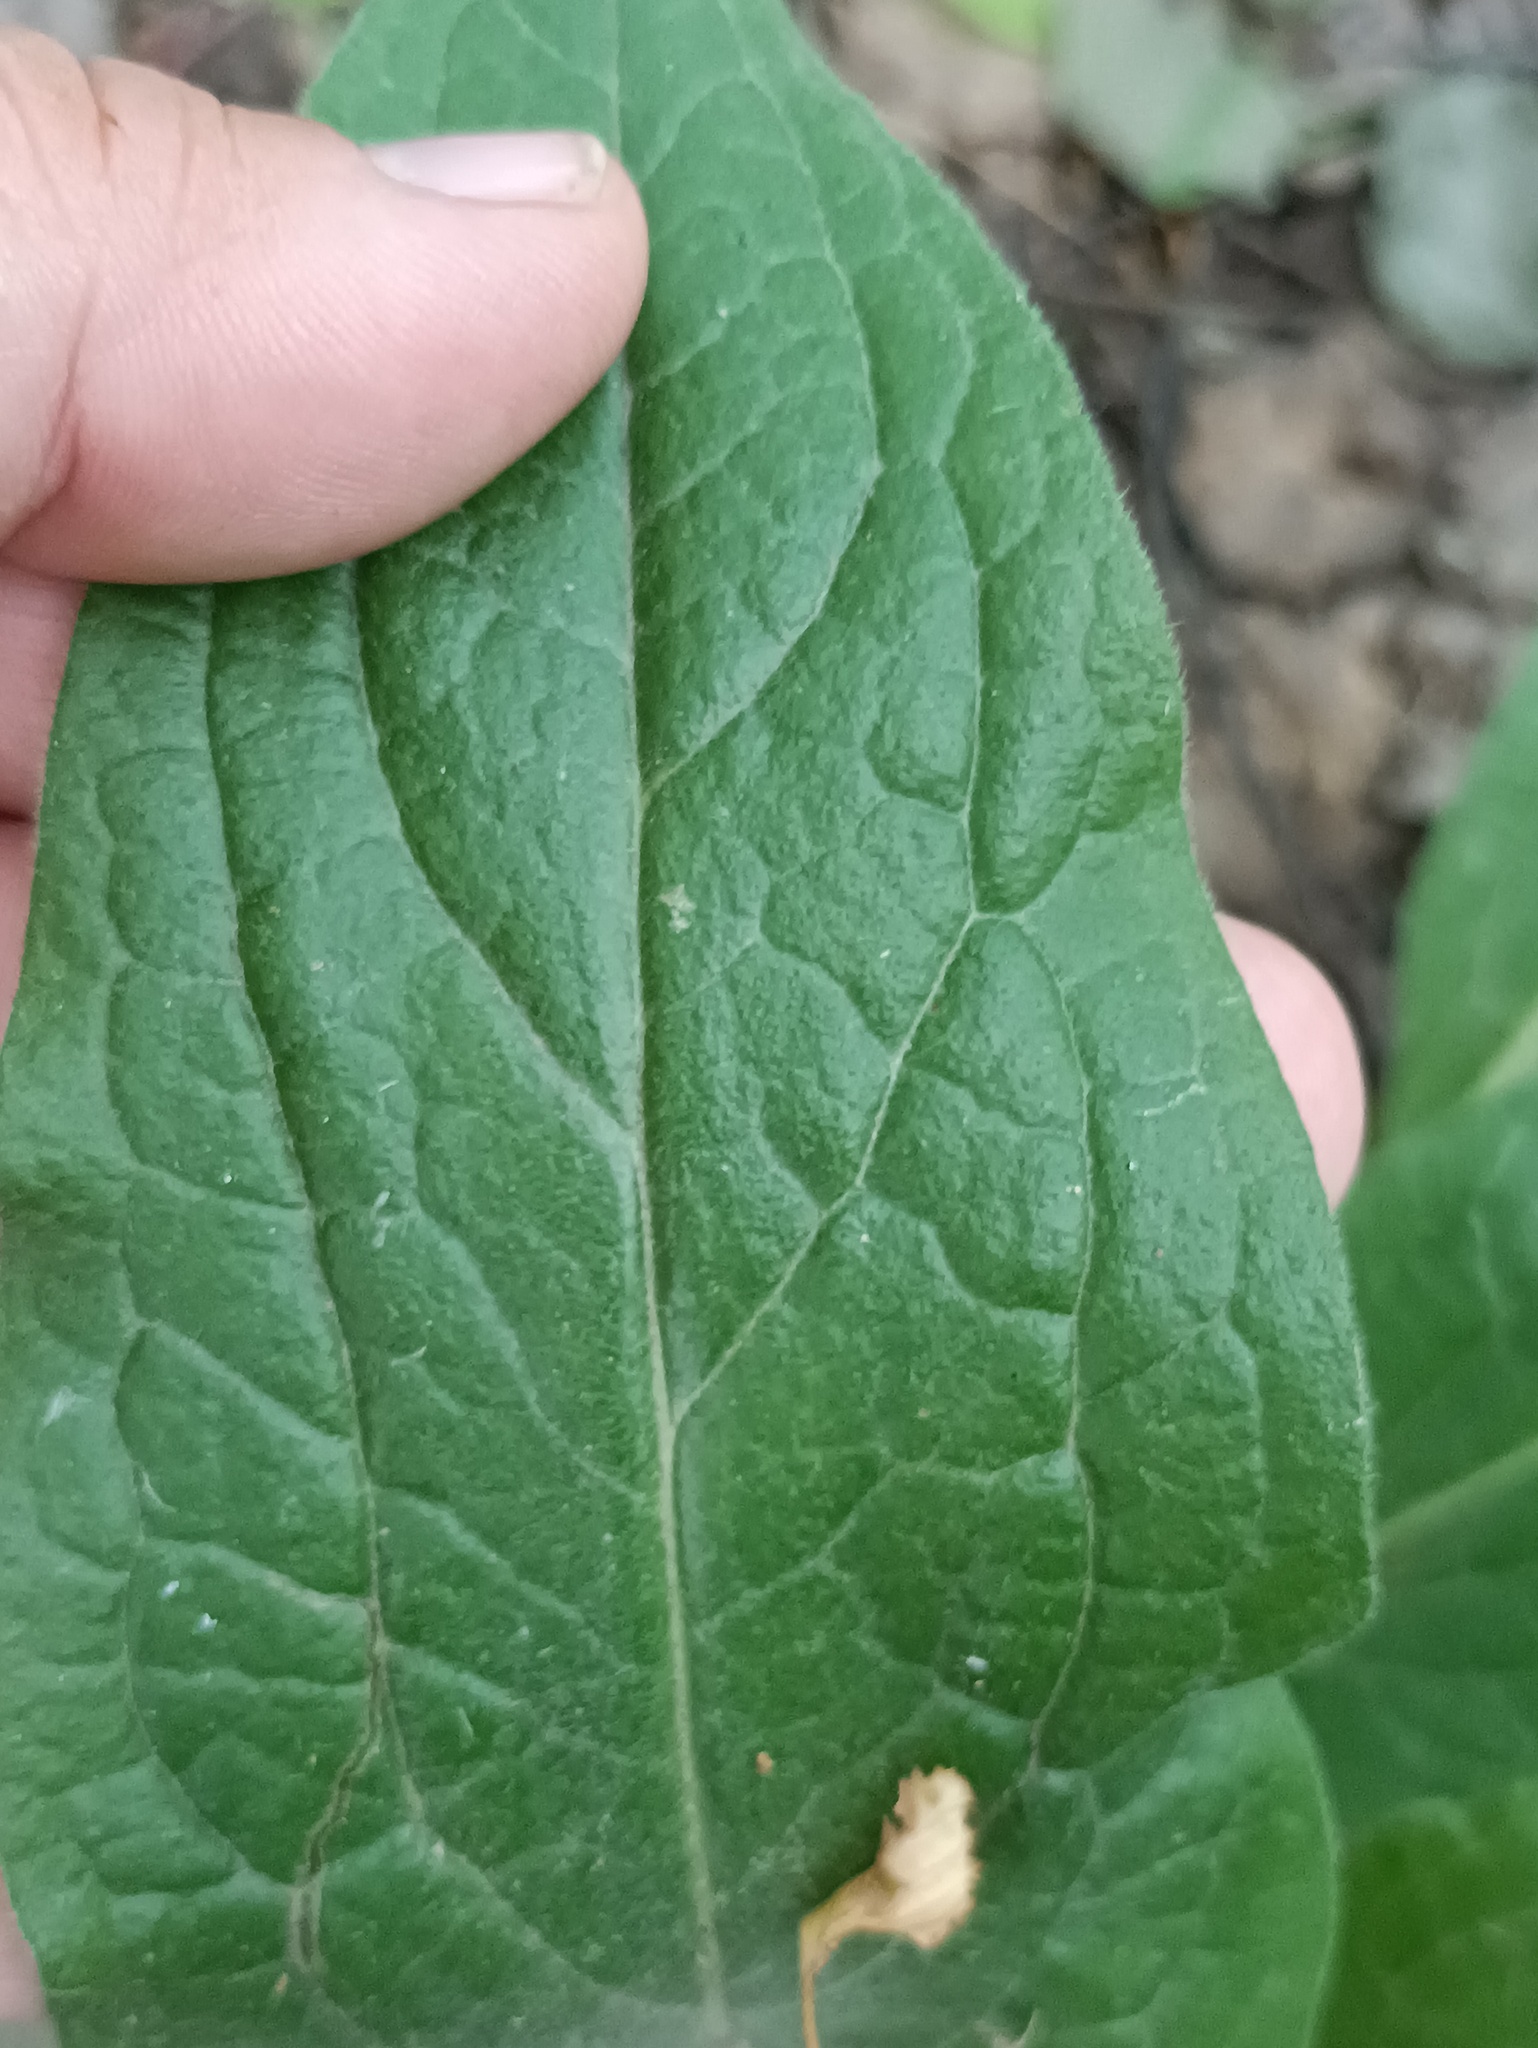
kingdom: Plantae
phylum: Tracheophyta
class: Magnoliopsida
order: Boraginales
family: Boraginaceae
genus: Cynoglossum
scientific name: Cynoglossum officinale
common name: Hound's-tongue
